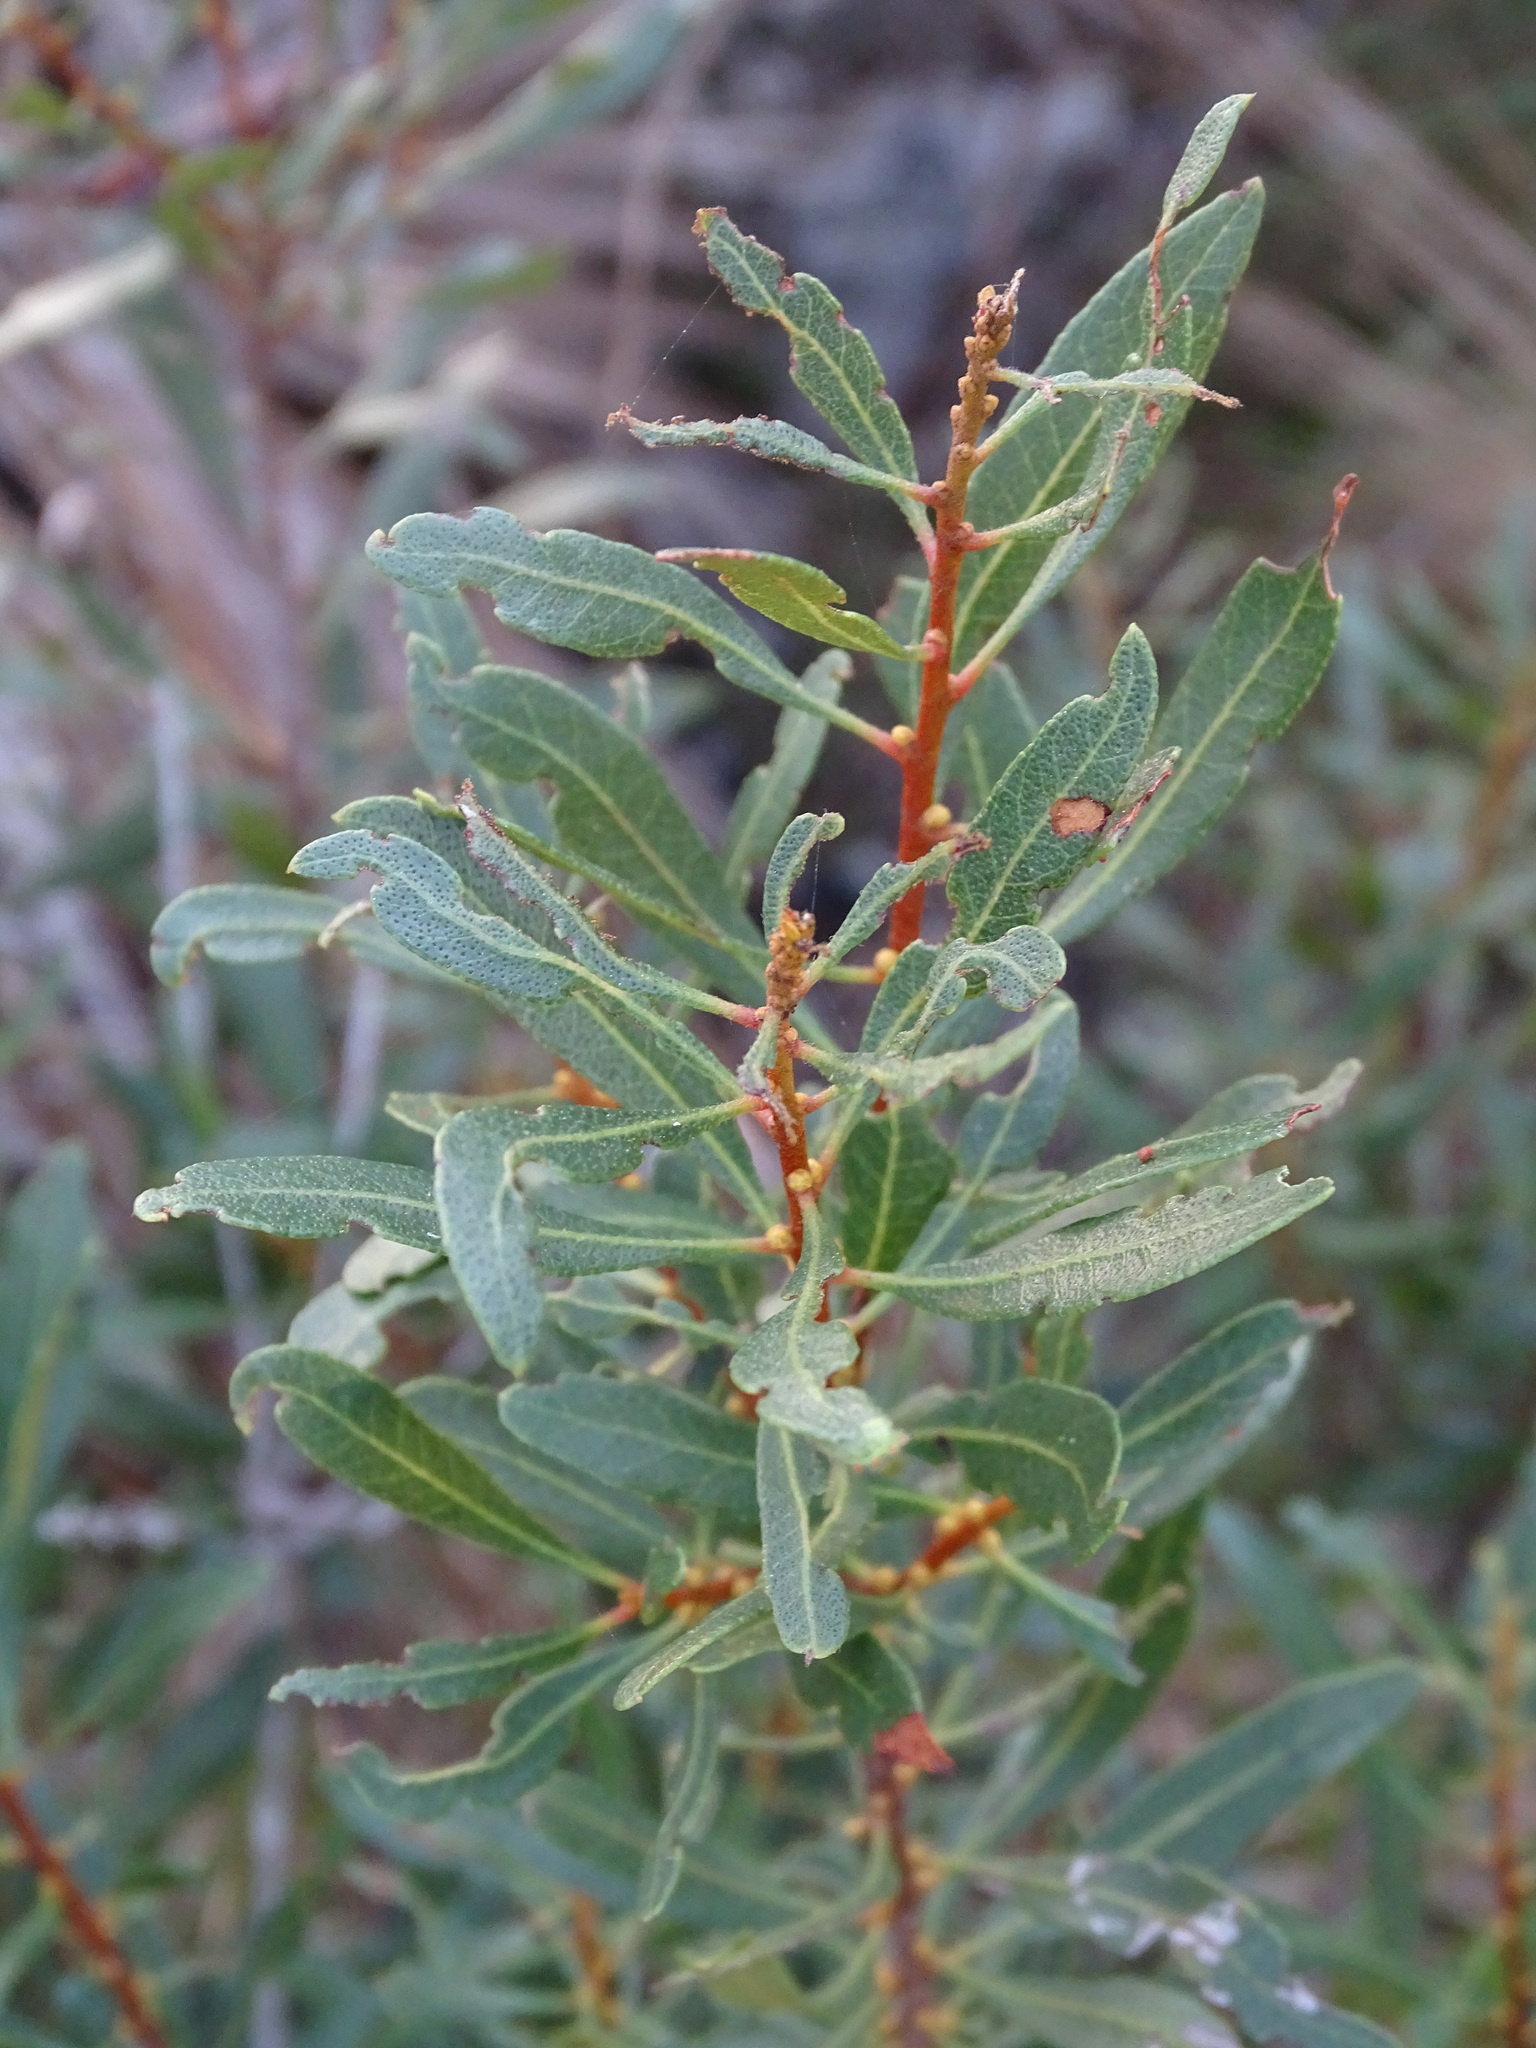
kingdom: Plantae
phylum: Tracheophyta
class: Magnoliopsida
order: Fagales
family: Myricaceae
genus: Morella
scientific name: Morella cerifera
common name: Wax myrtle
